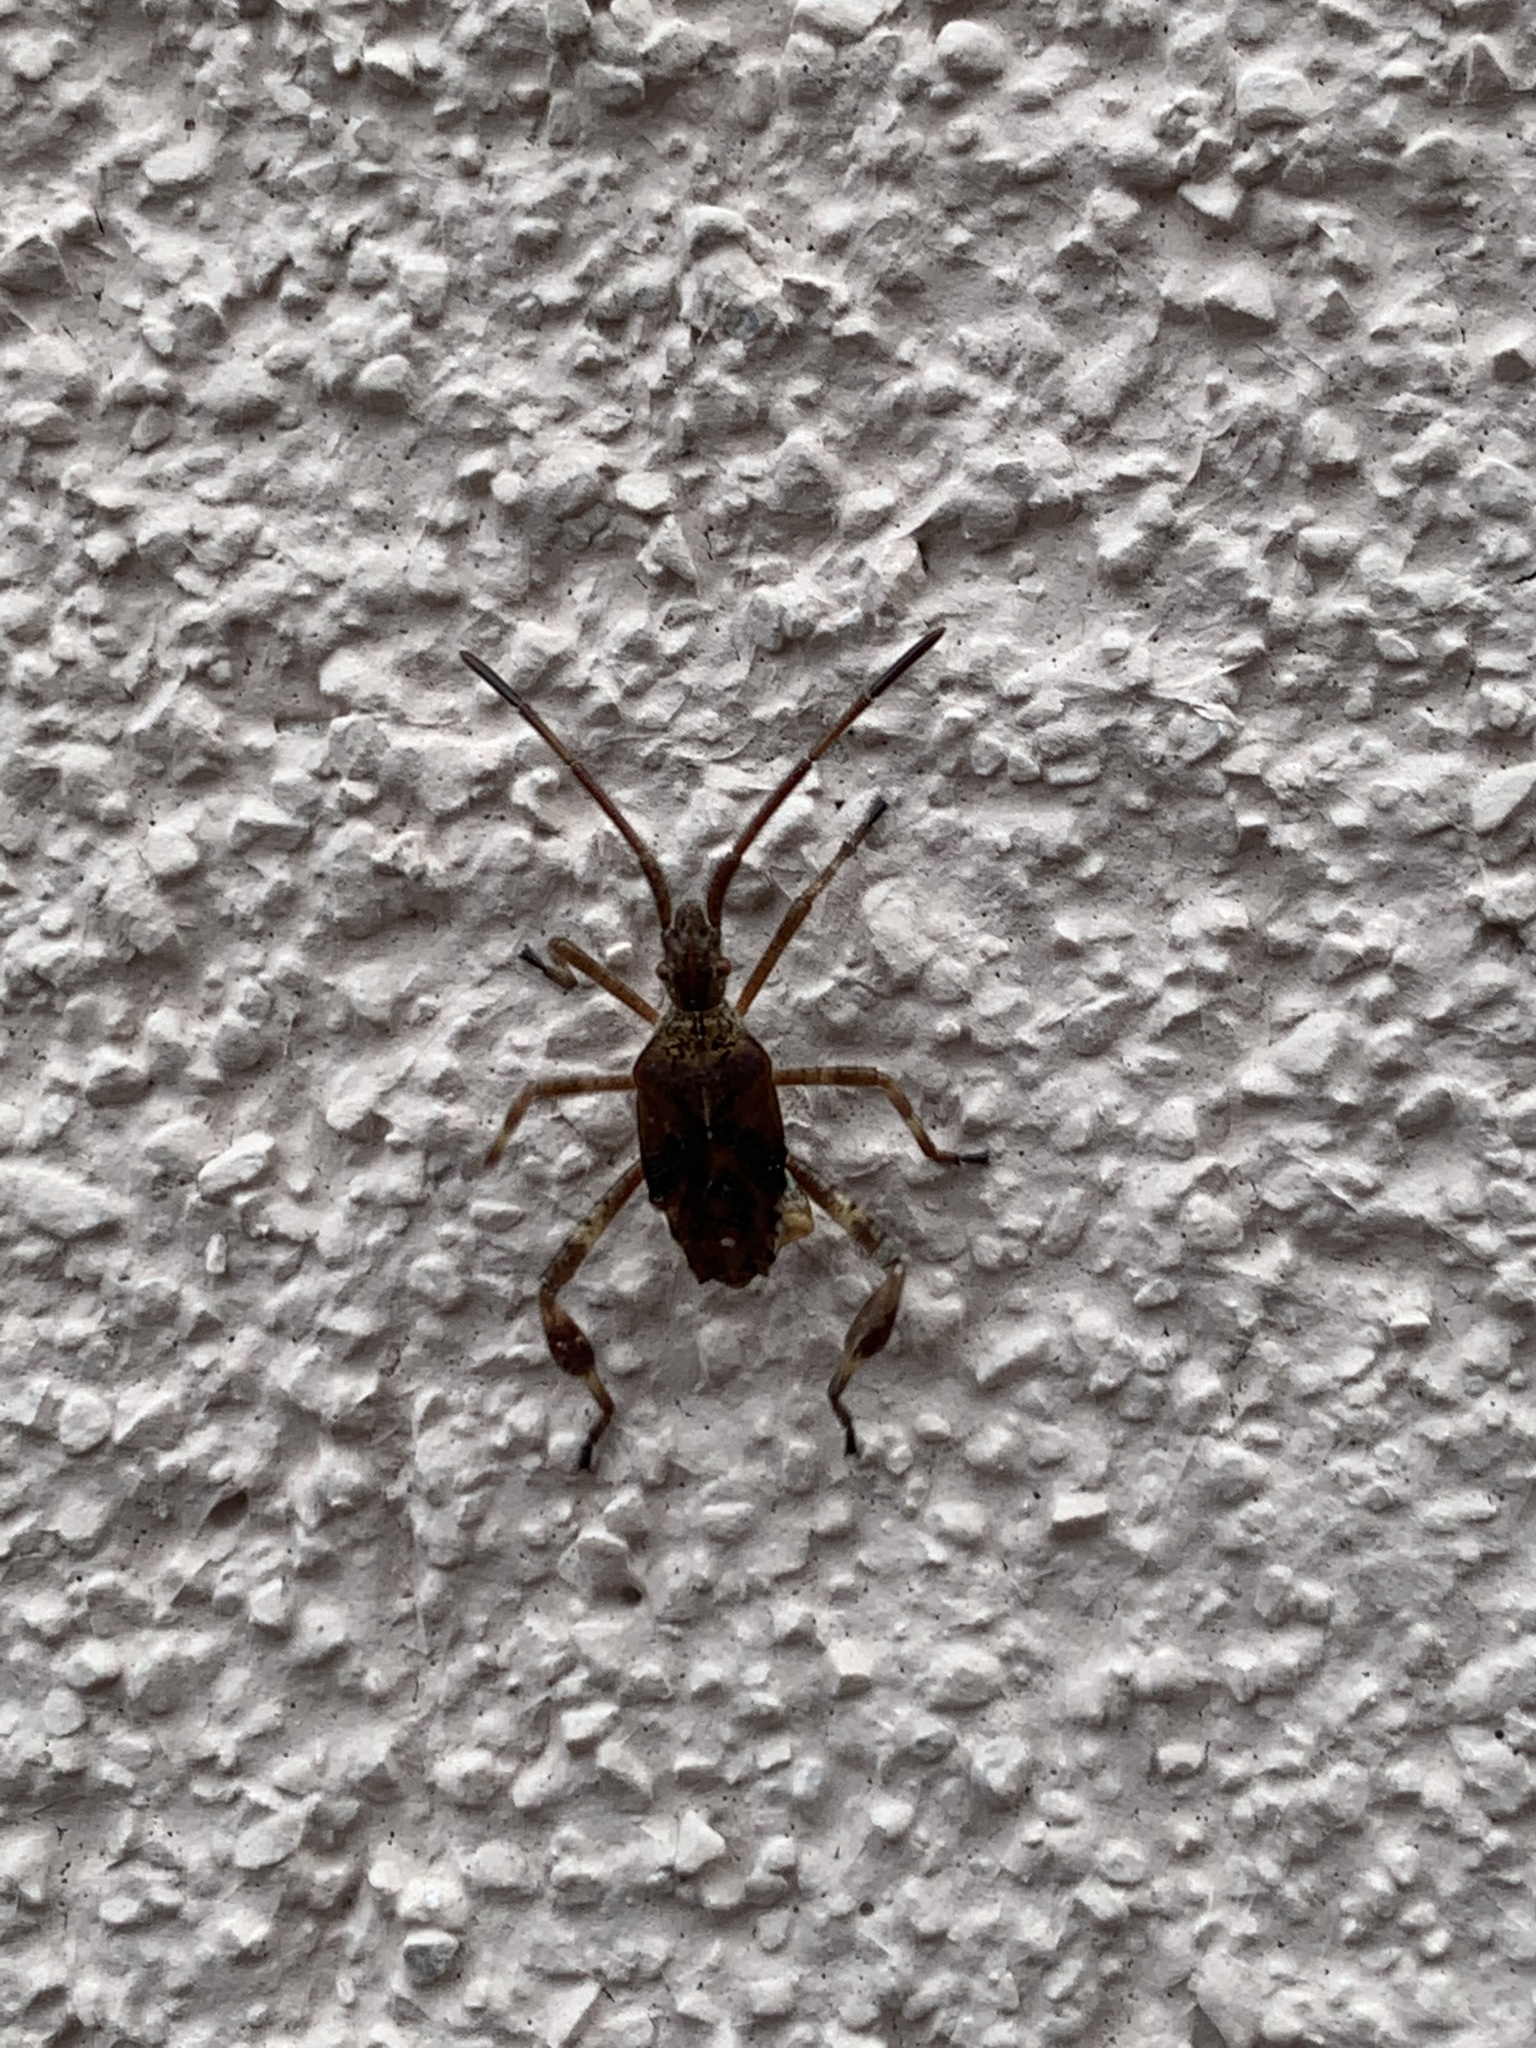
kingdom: Animalia
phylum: Arthropoda
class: Insecta
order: Hemiptera
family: Coreidae
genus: Leptoglossus
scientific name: Leptoglossus occidentalis
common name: Western conifer-seed bug
